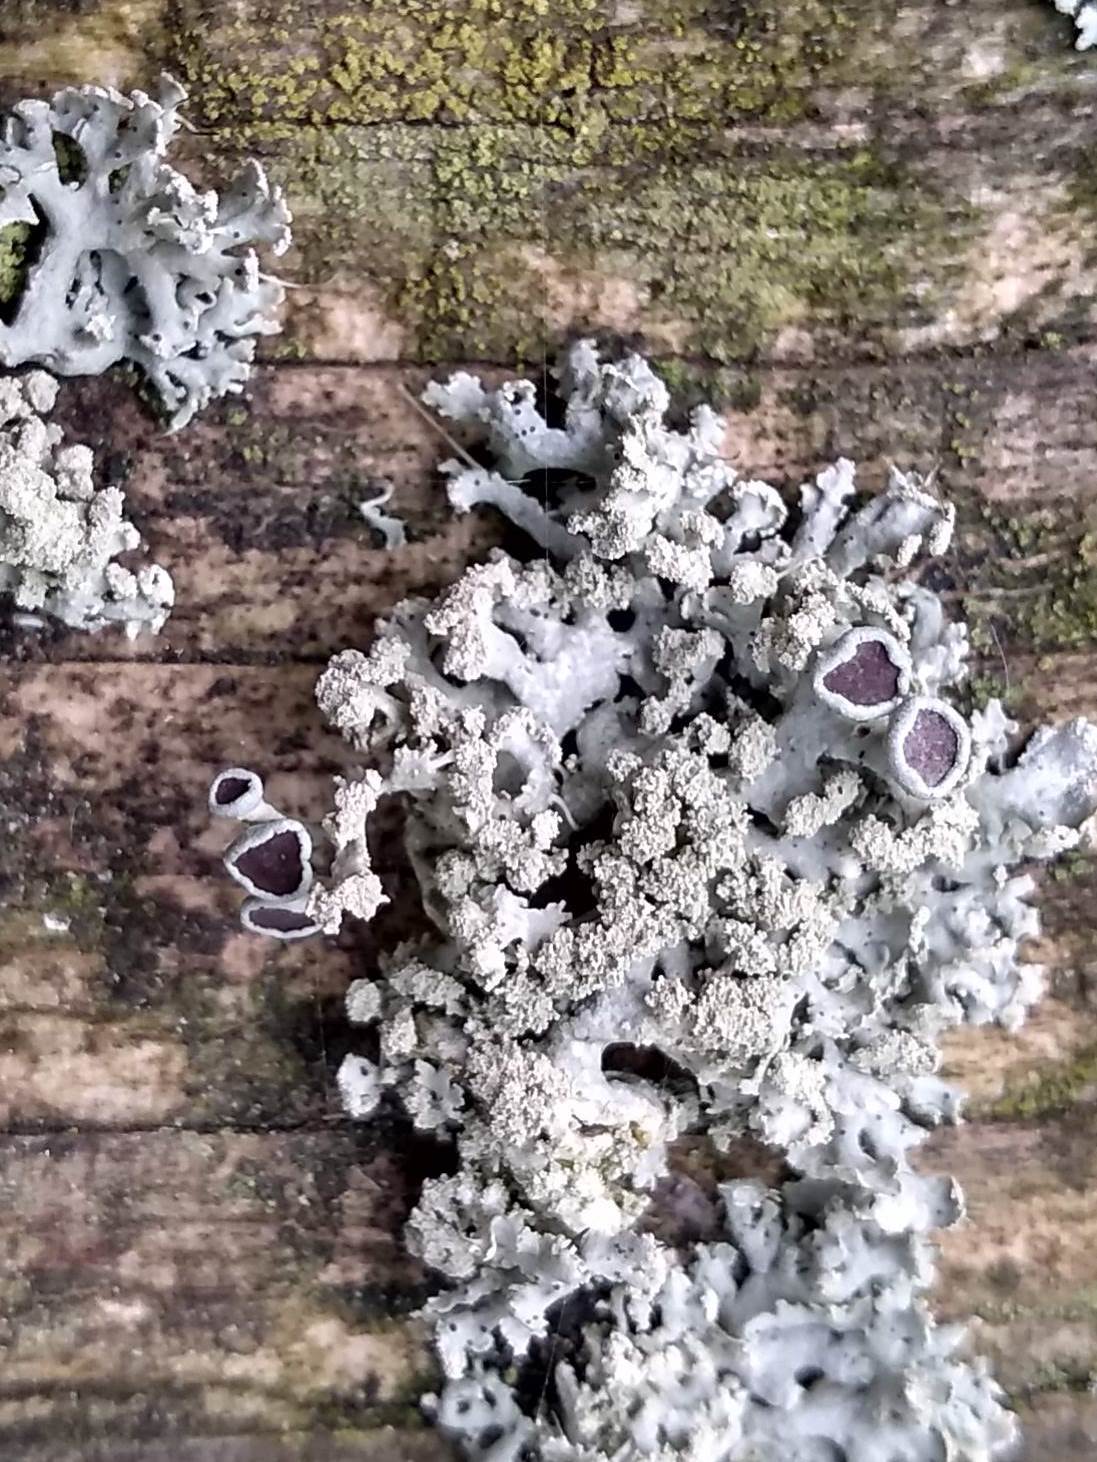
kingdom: Fungi
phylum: Ascomycota
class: Lecanoromycetes
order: Caliciales
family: Physciaceae
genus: Physcia
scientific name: Physcia tenella
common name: Fringed rosette lichen
